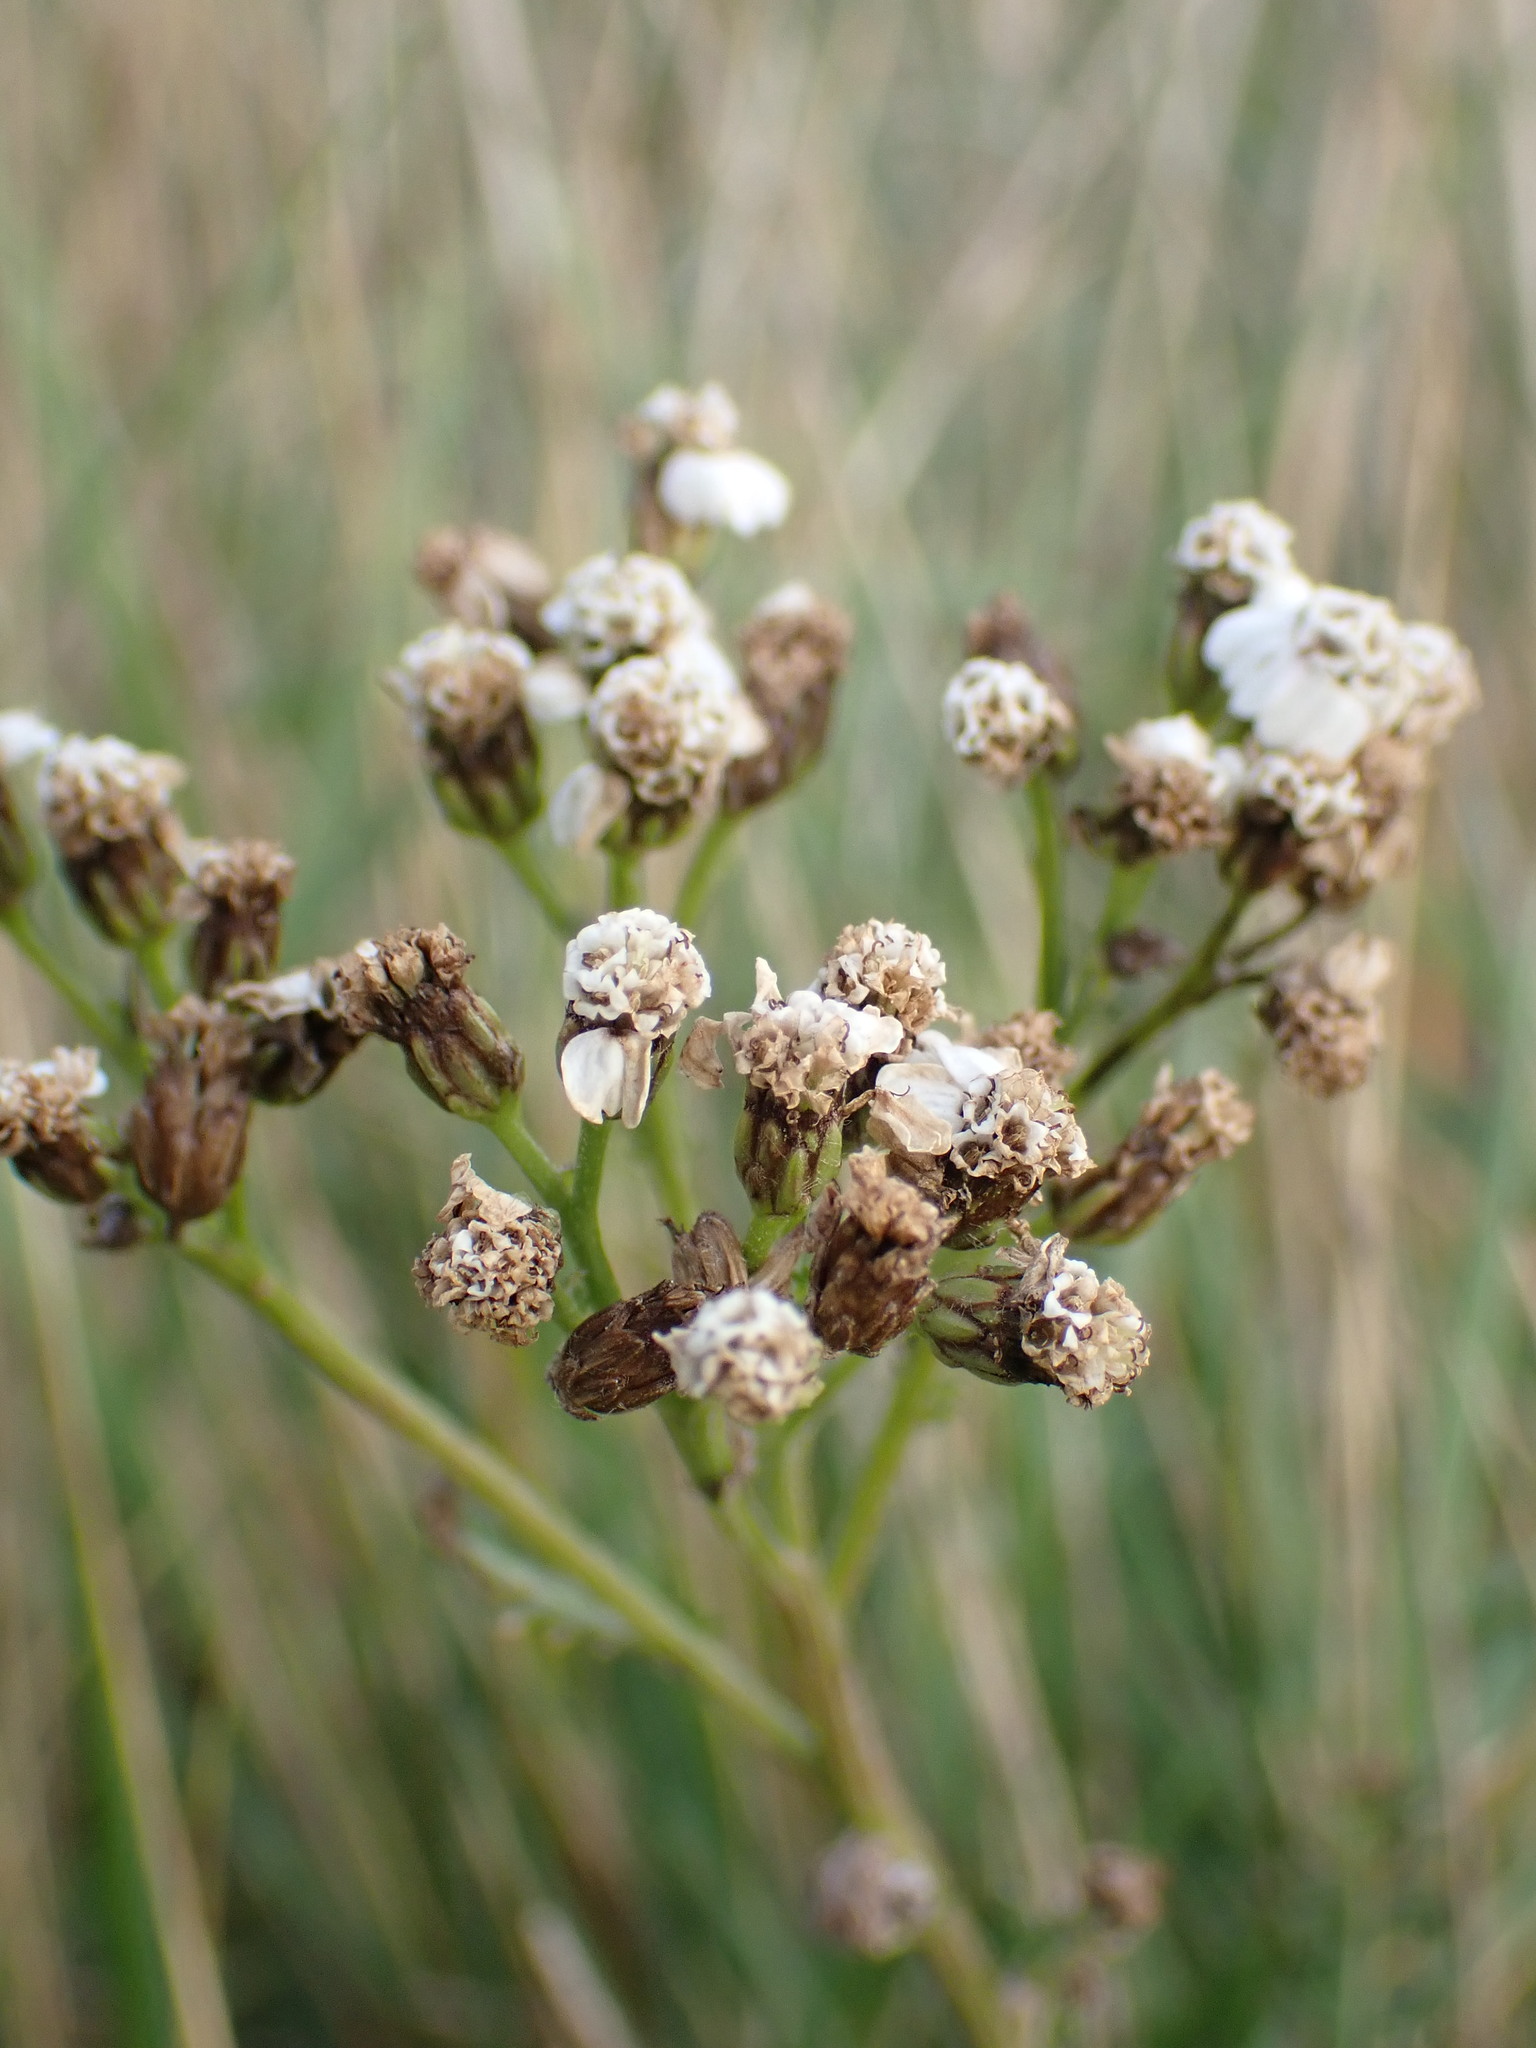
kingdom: Plantae
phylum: Tracheophyta
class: Magnoliopsida
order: Asterales
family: Asteraceae
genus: Achillea
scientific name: Achillea millefolium
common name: Yarrow
